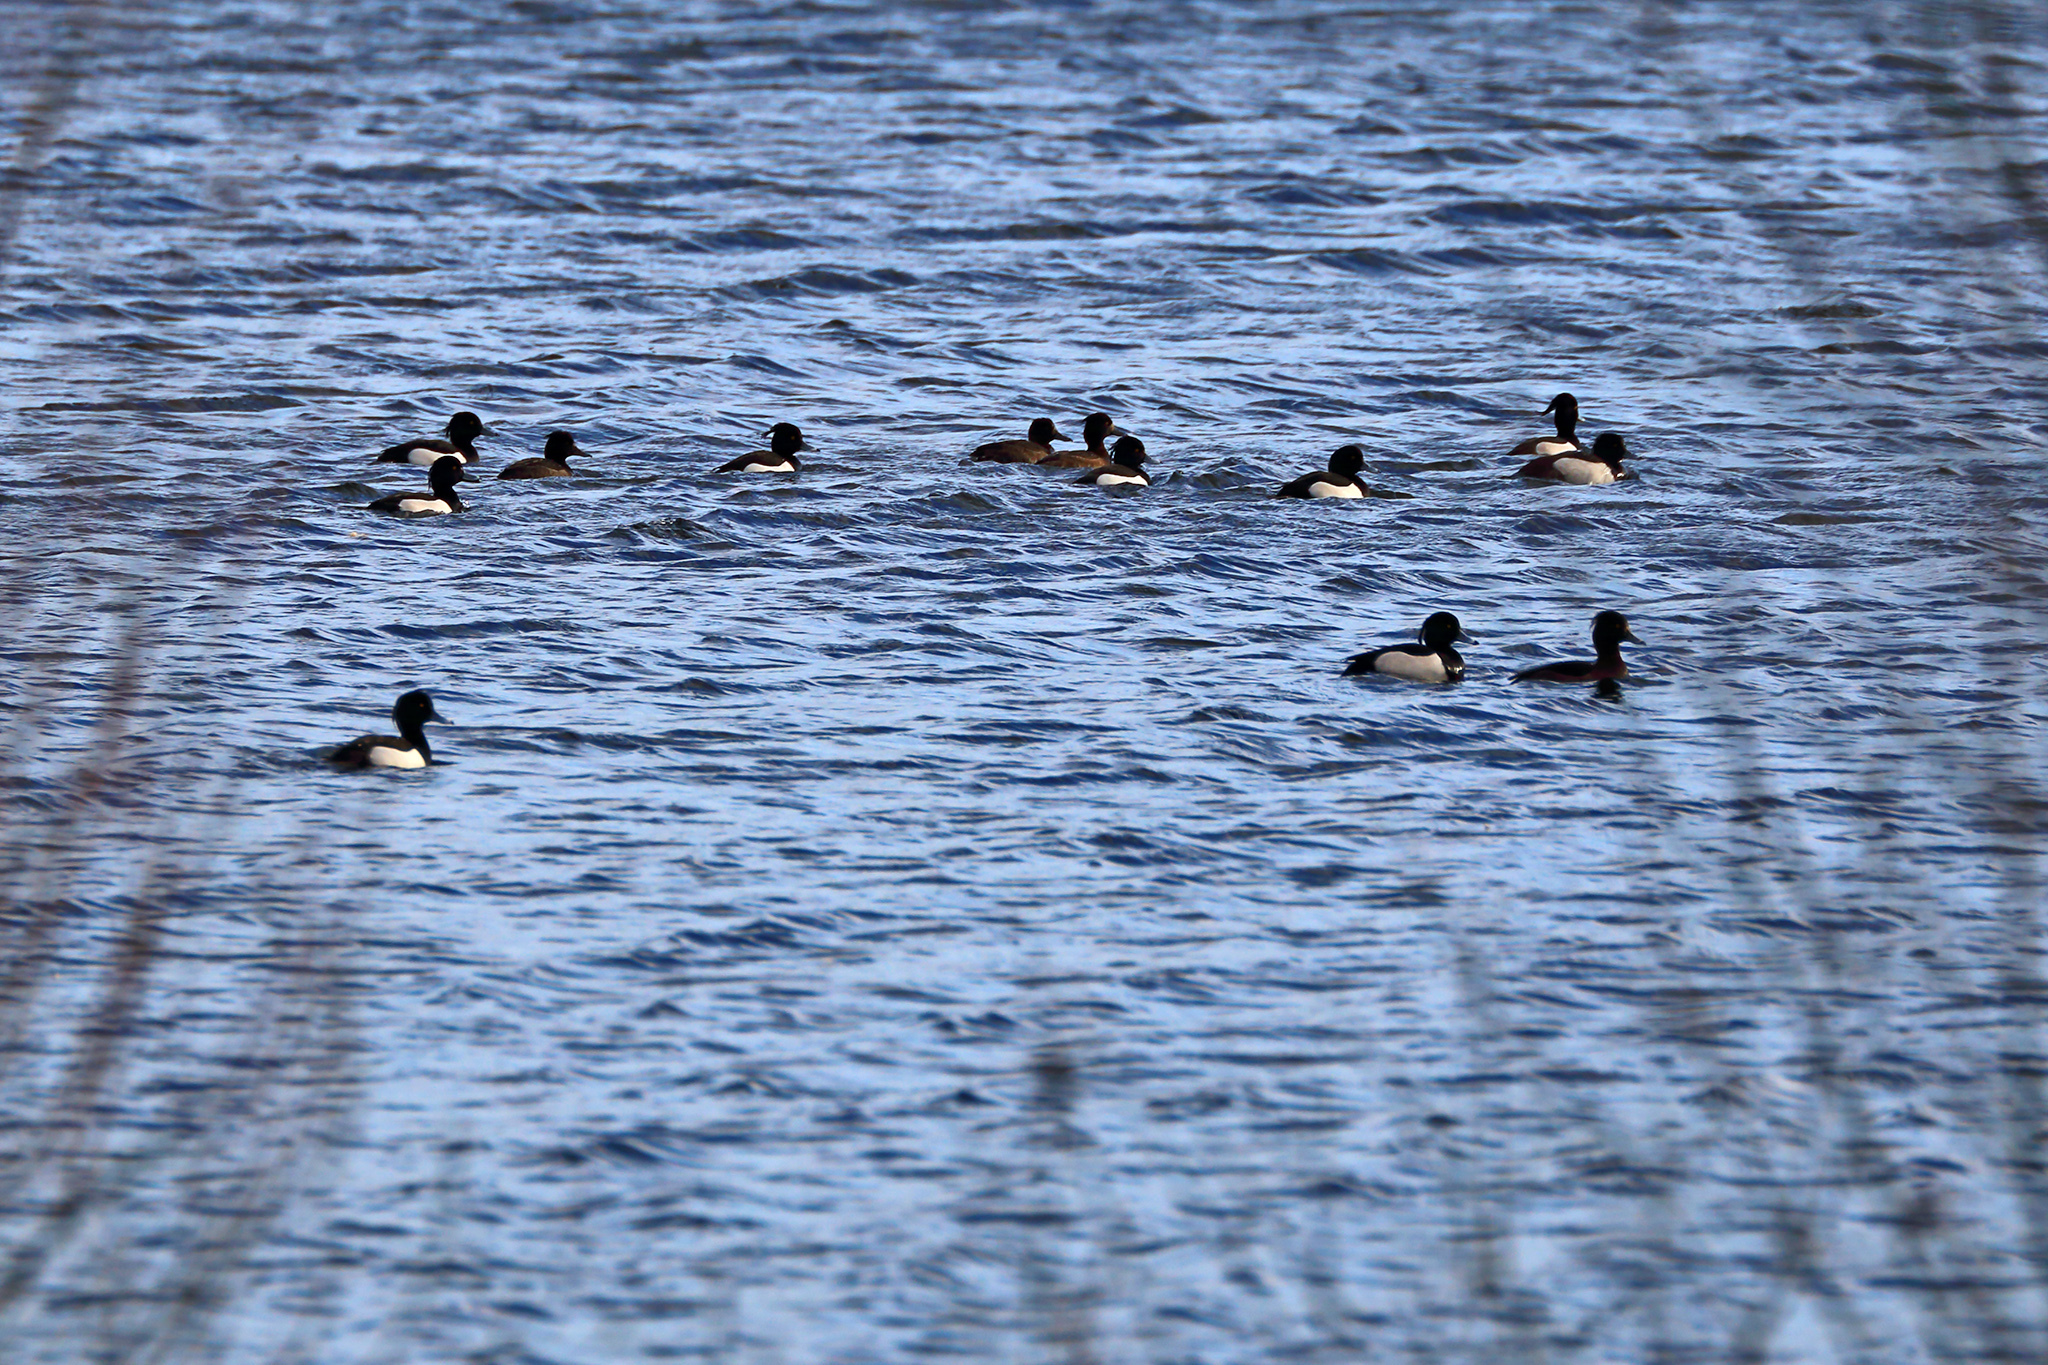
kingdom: Animalia
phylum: Chordata
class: Aves
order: Anseriformes
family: Anatidae
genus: Aythya
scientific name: Aythya fuligula
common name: Tufted duck
